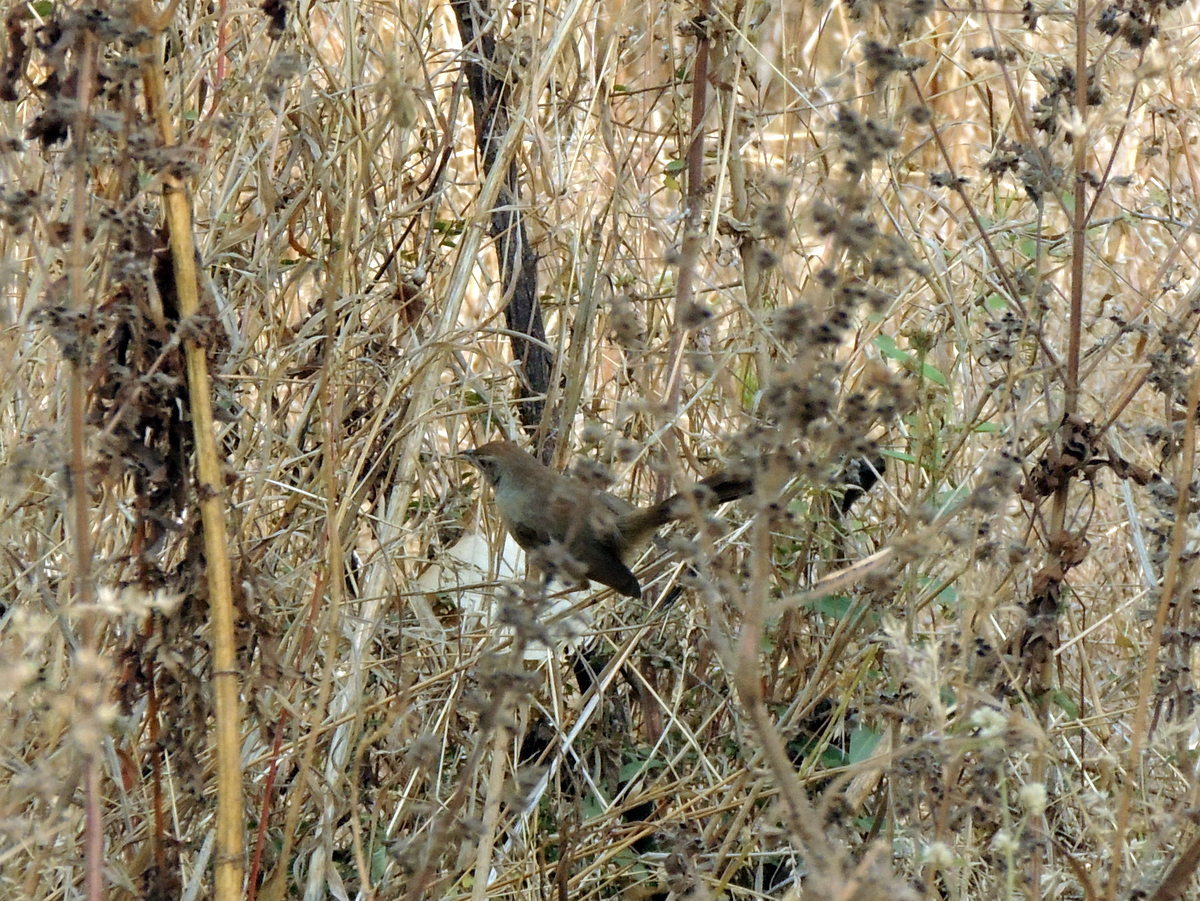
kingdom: Animalia
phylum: Chordata
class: Aves
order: Passeriformes
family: Muscicapidae
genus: Saxicoloides
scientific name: Saxicoloides fulicatus
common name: Indian robin
